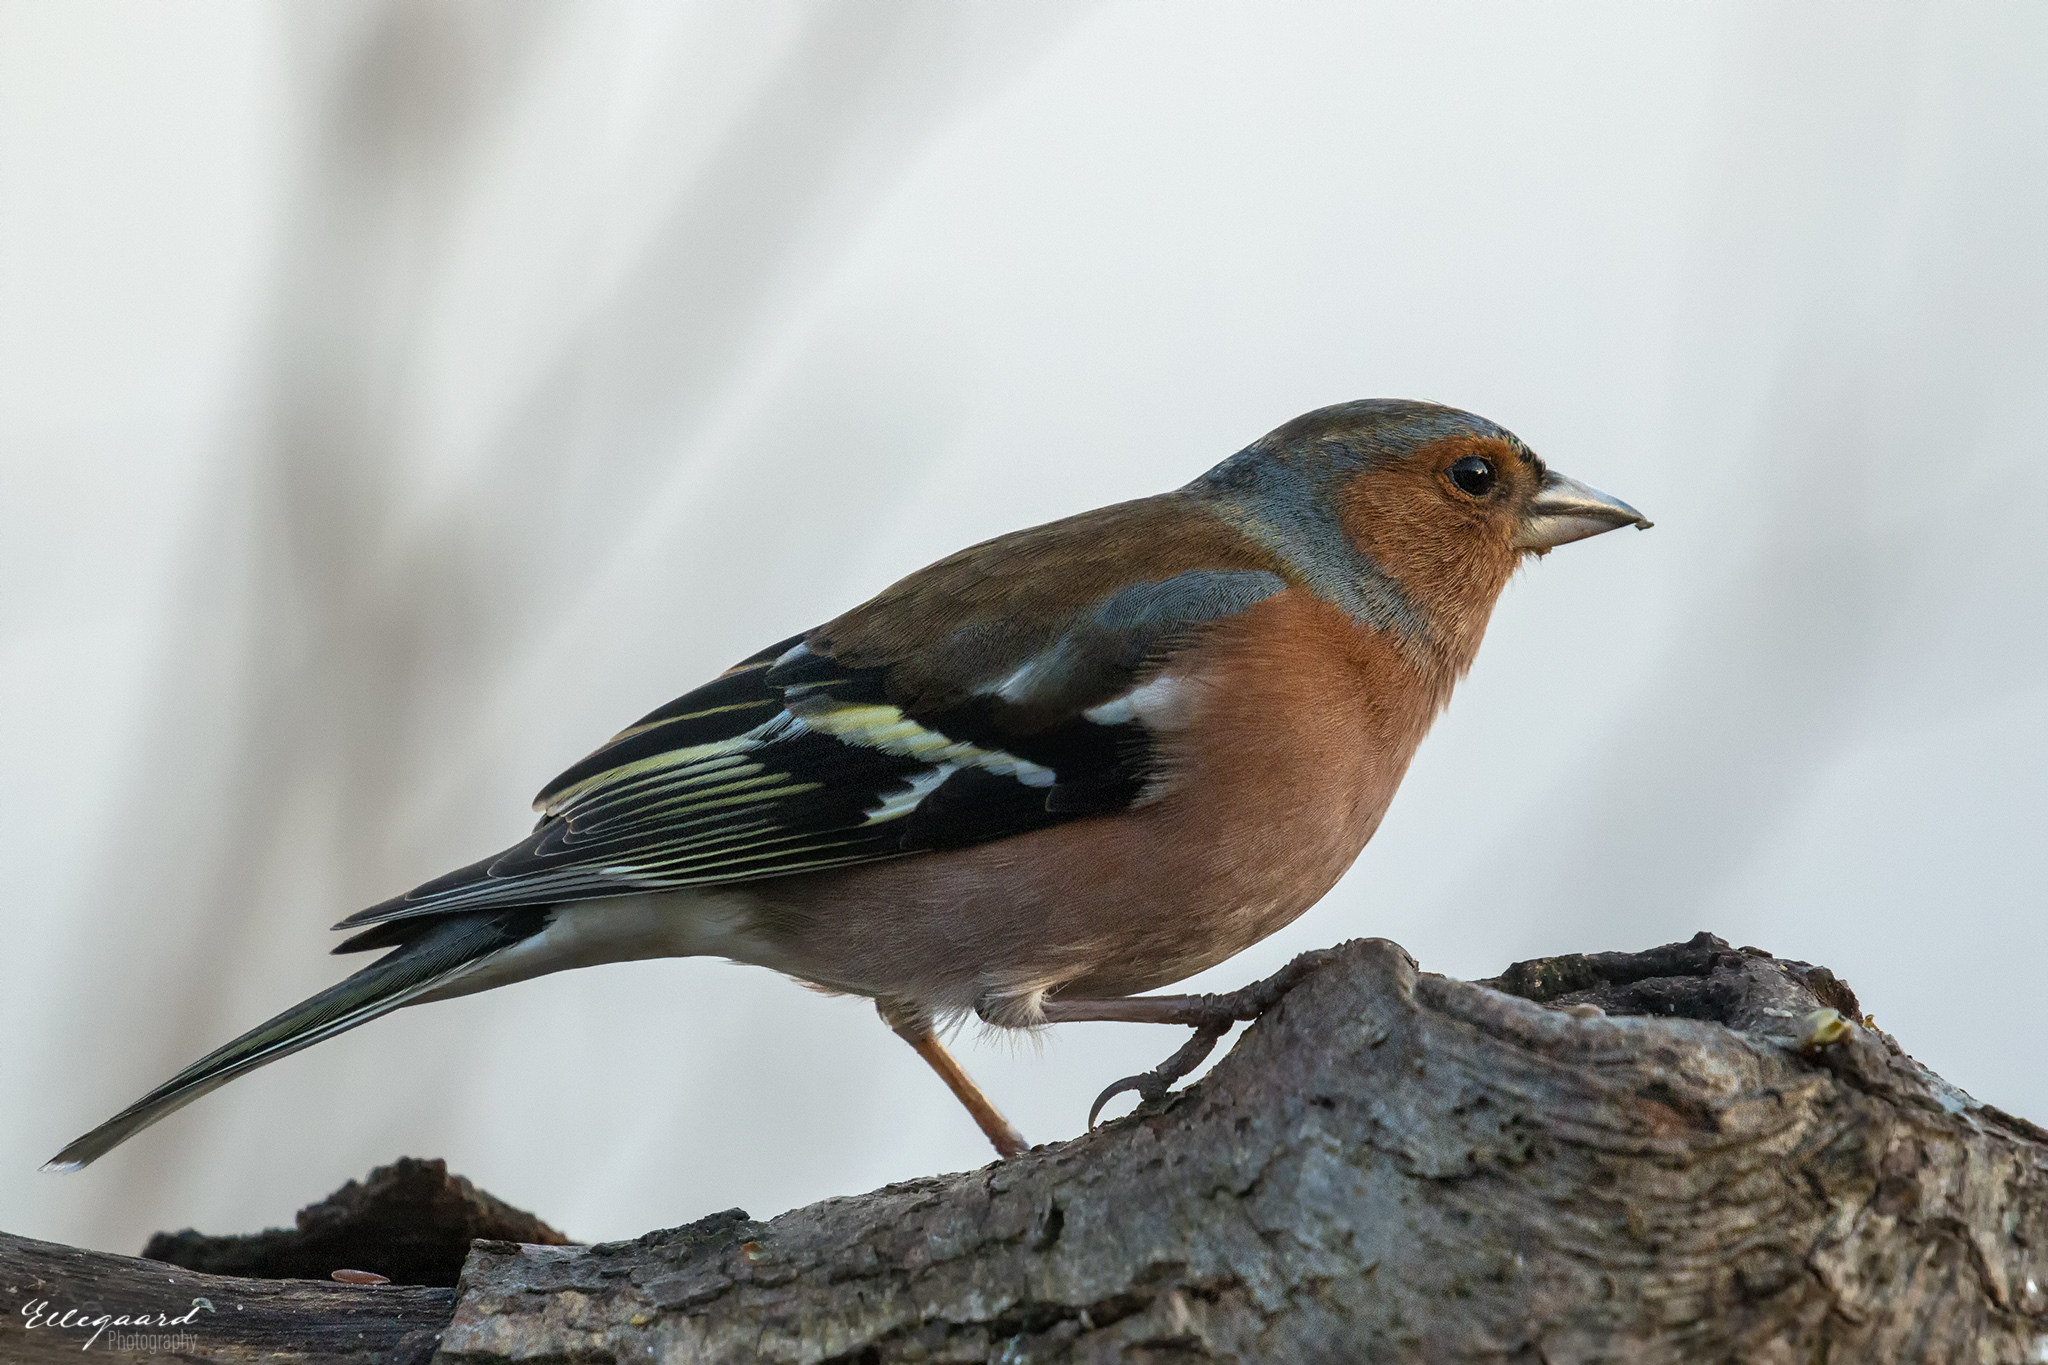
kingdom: Animalia
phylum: Chordata
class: Aves
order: Passeriformes
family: Fringillidae
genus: Fringilla
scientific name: Fringilla coelebs
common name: Common chaffinch
